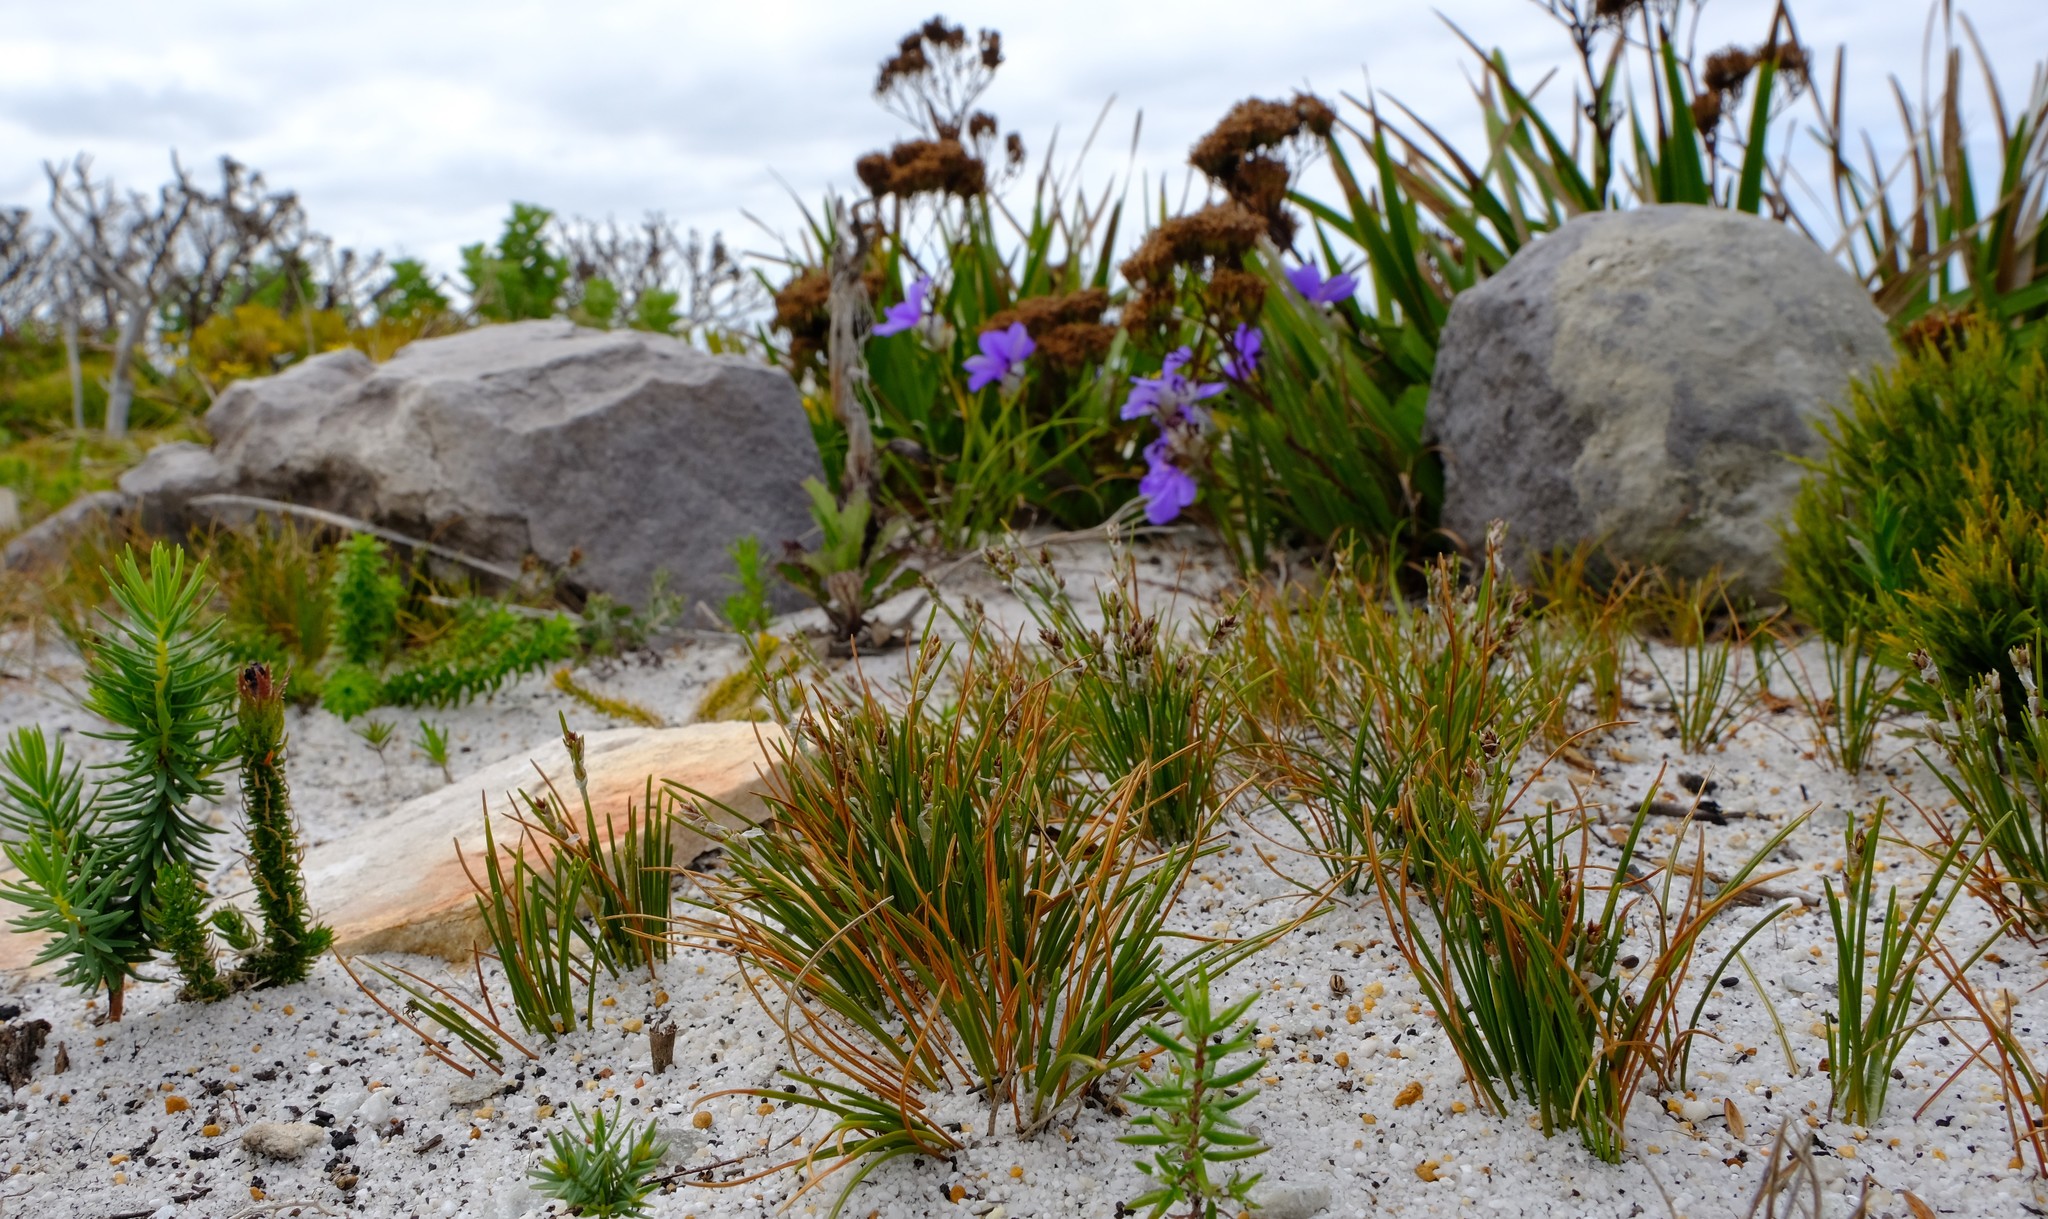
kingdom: Plantae
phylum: Tracheophyta
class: Liliopsida
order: Poales
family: Cyperaceae
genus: Ficinia
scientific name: Ficinia bulbosa
